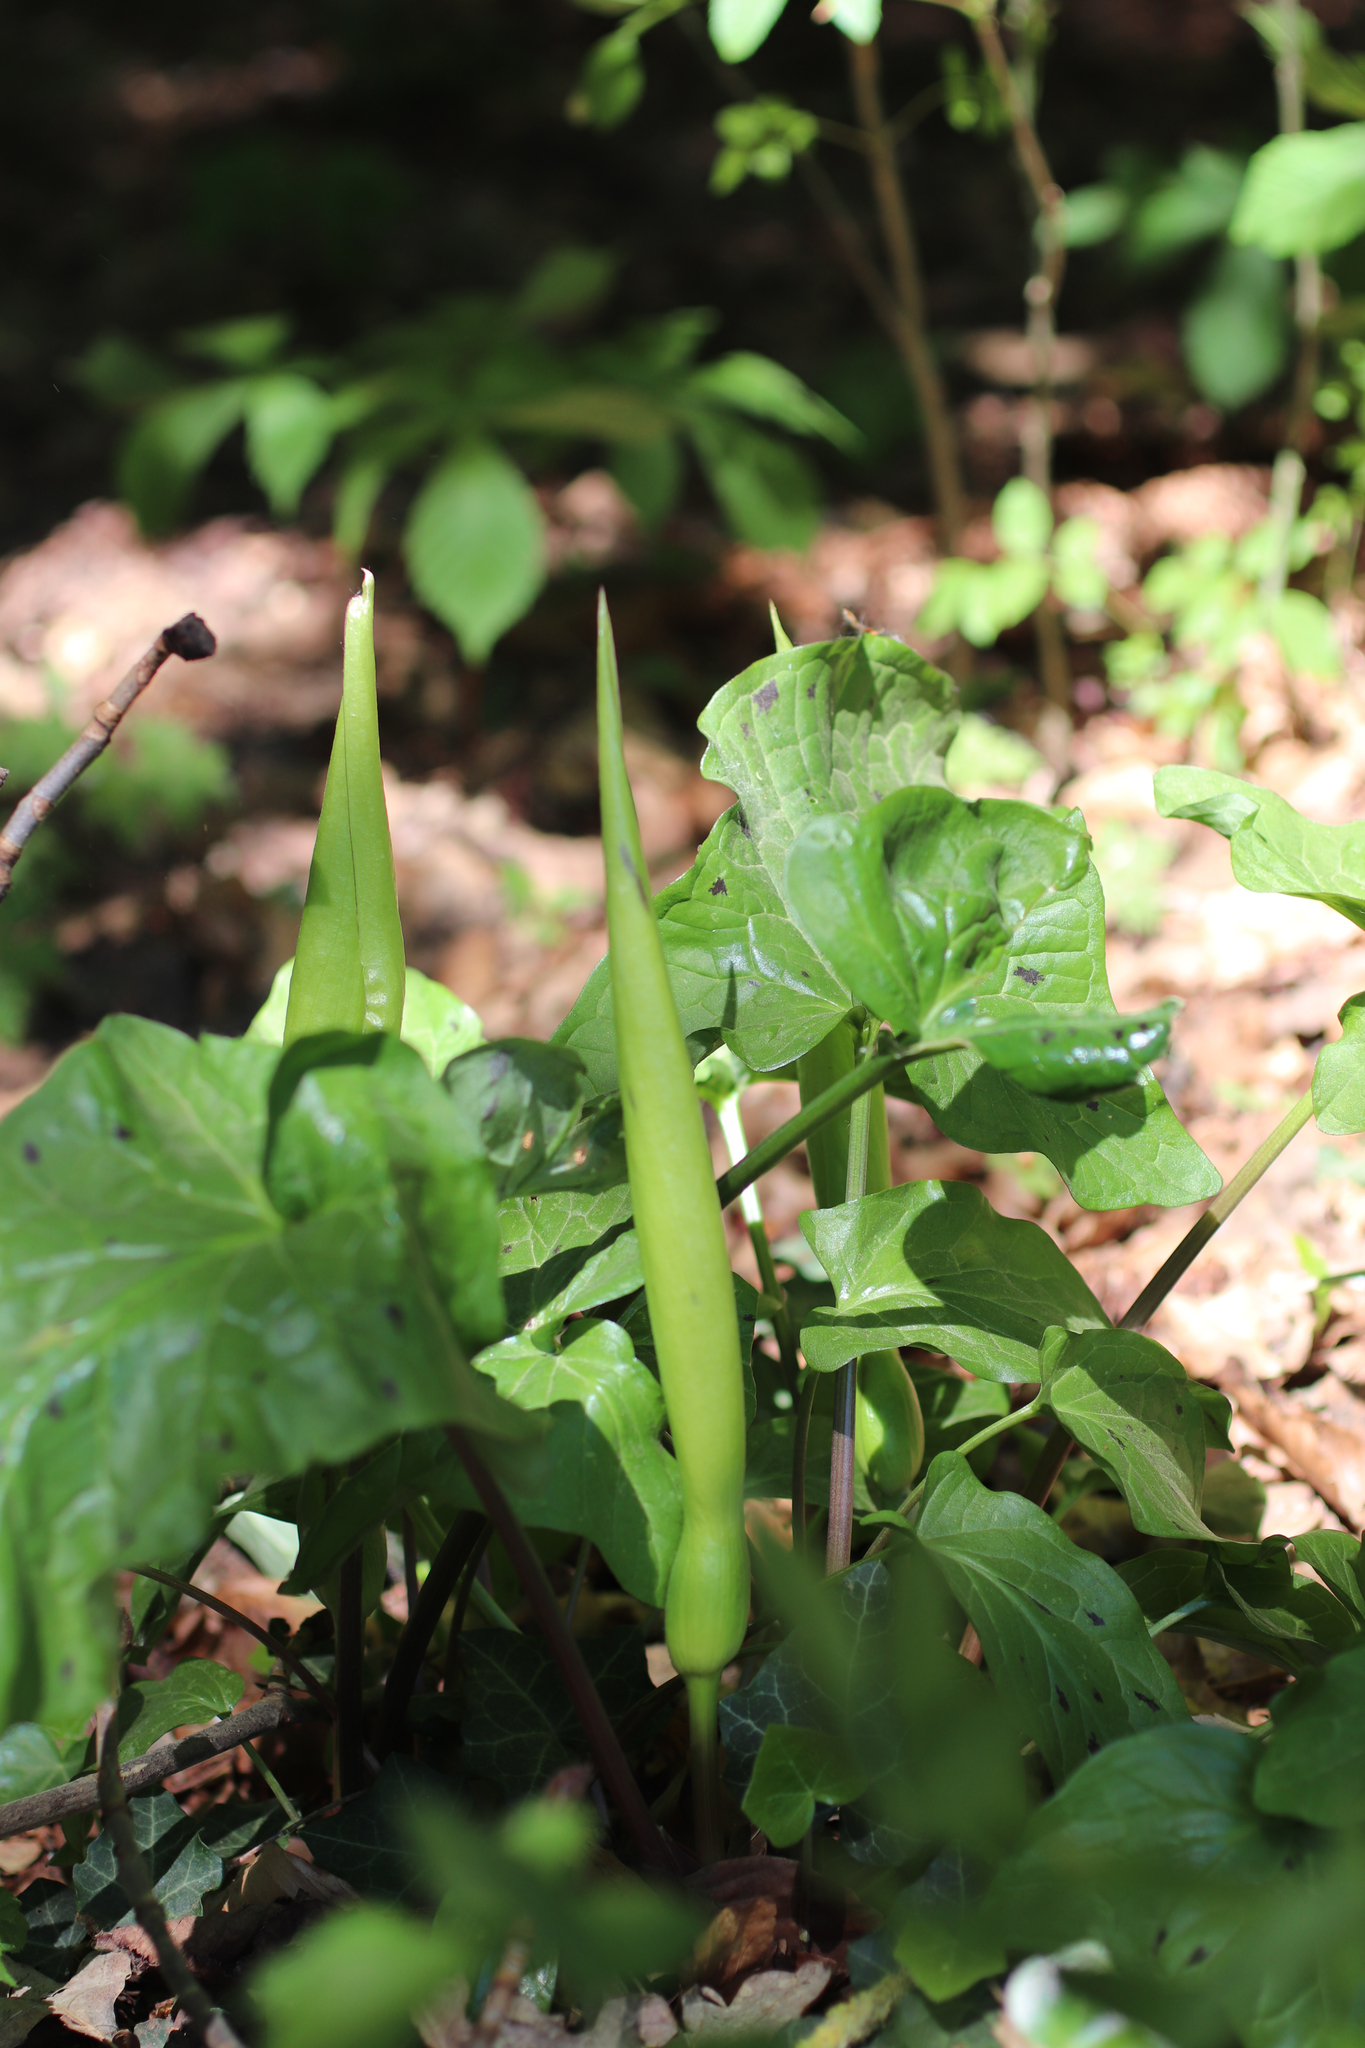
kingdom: Plantae
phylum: Tracheophyta
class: Liliopsida
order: Alismatales
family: Araceae
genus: Arum
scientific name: Arum maculatum
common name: Lords-and-ladies
